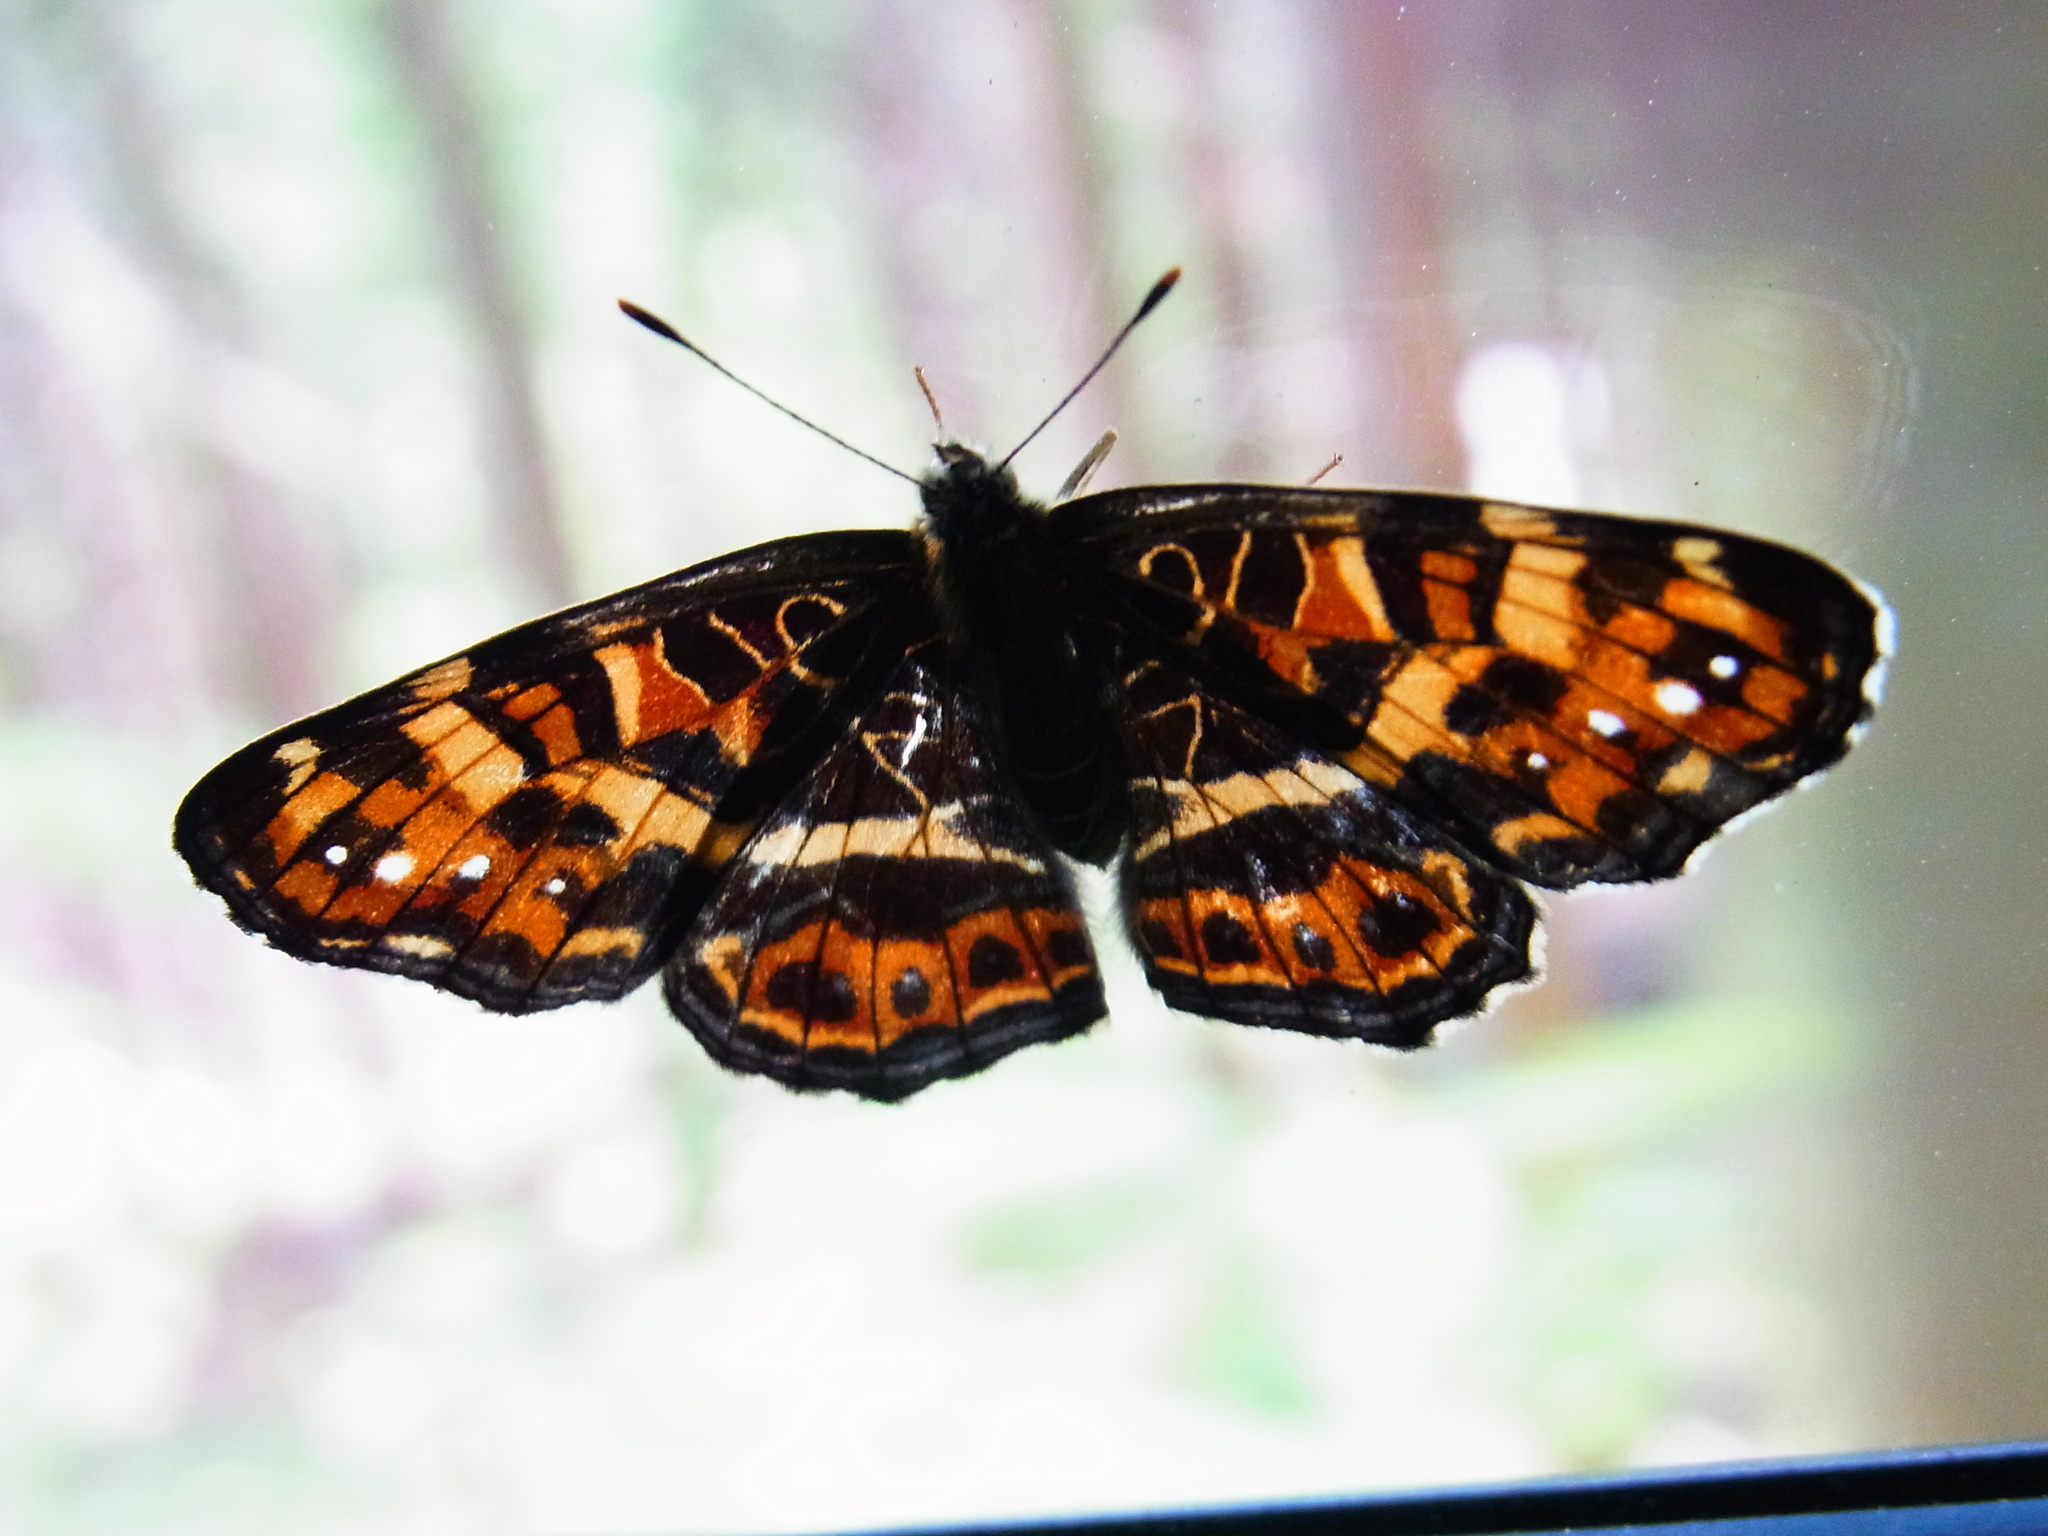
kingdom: Animalia
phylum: Arthropoda
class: Insecta
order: Lepidoptera
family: Nymphalidae
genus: Araschnia
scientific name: Araschnia burejana
